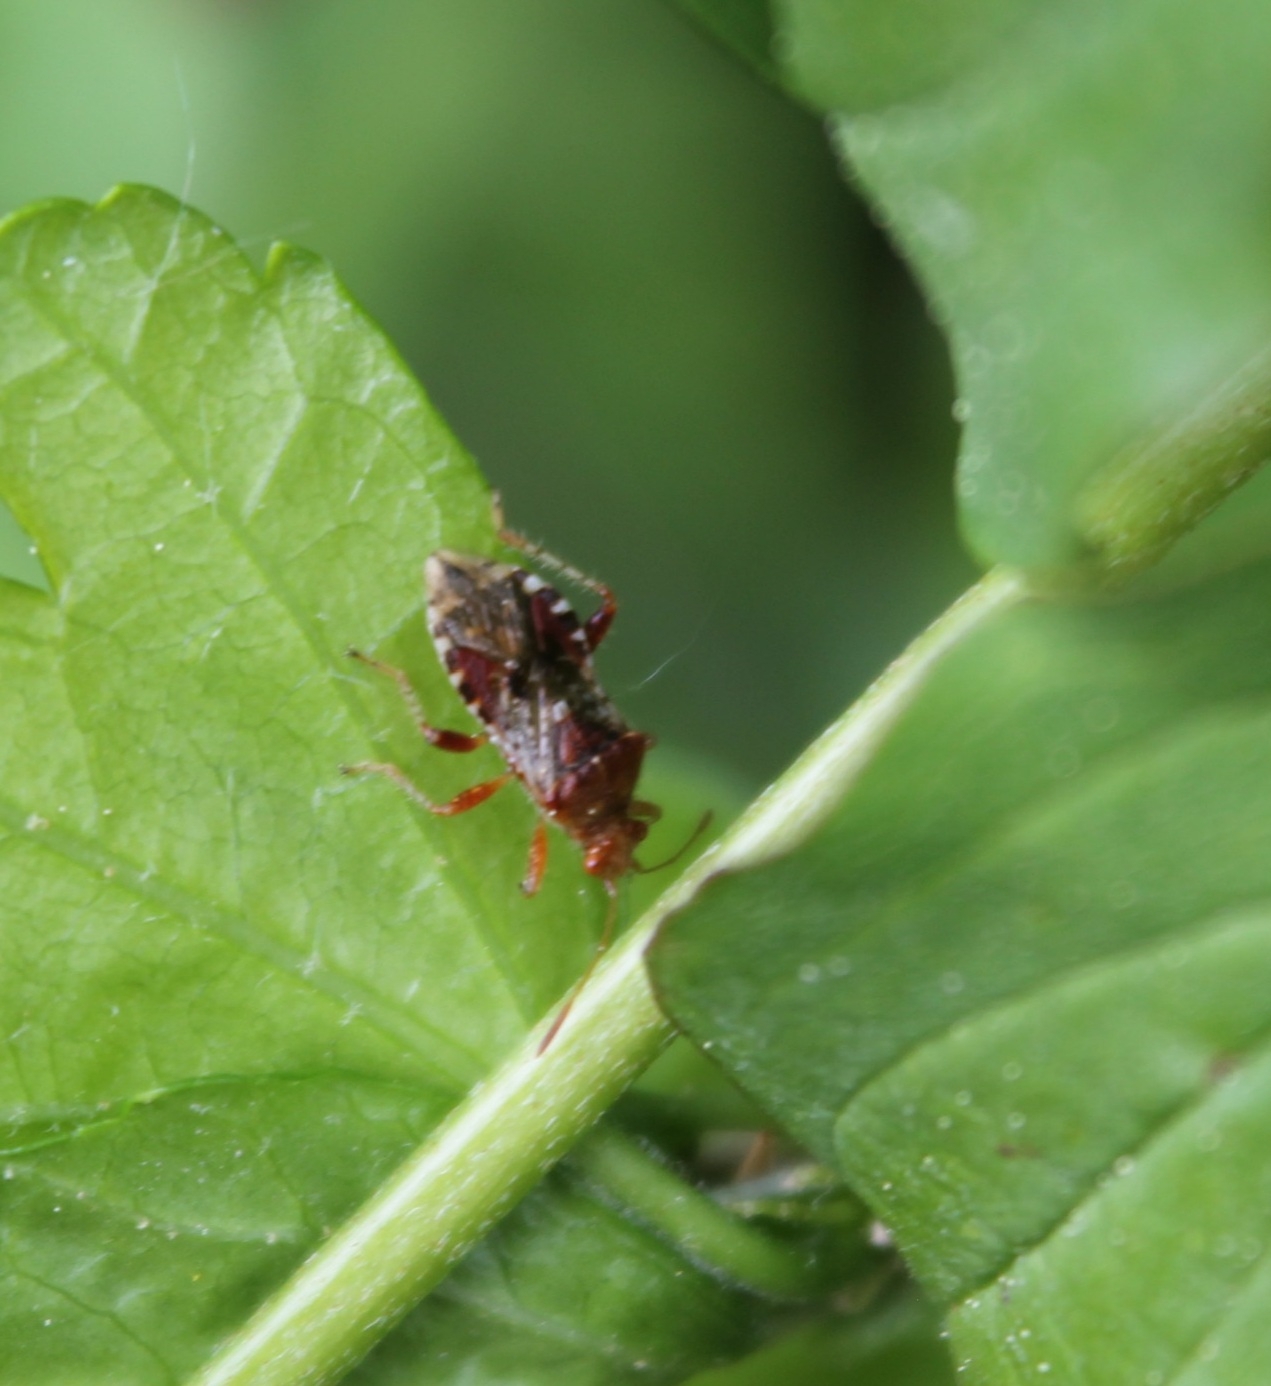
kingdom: Animalia
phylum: Arthropoda
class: Insecta
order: Hemiptera
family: Rhopalidae
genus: Rhopalus
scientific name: Rhopalus subrufus
